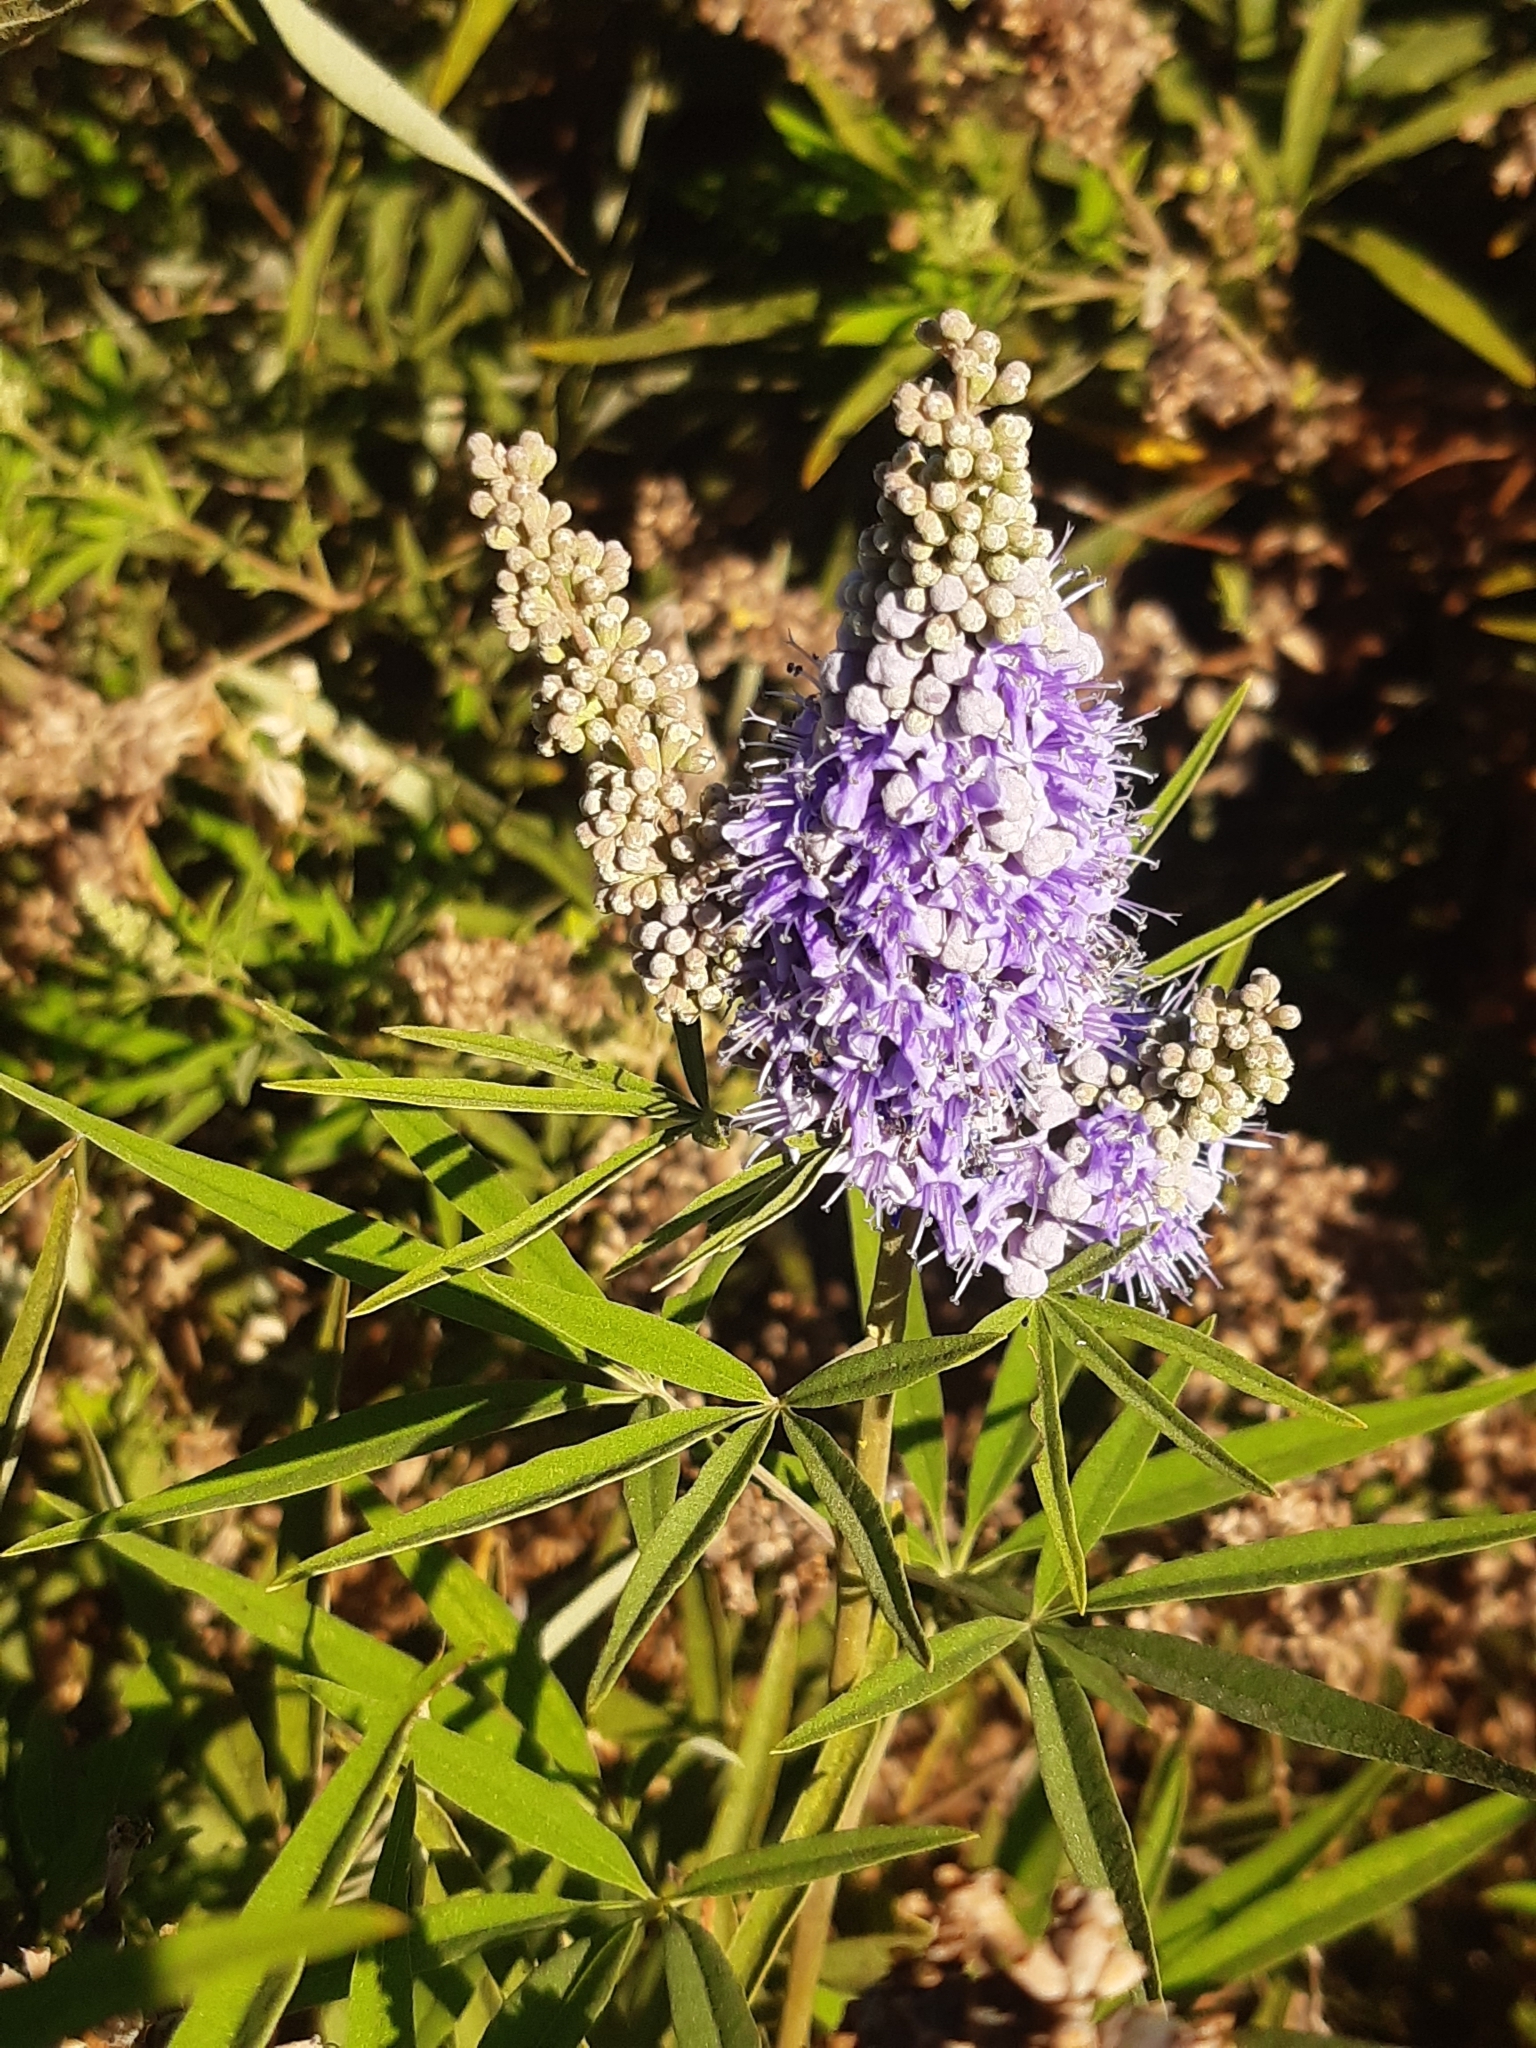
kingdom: Plantae
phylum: Tracheophyta
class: Magnoliopsida
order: Lamiales
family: Lamiaceae
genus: Vitex
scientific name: Vitex agnus-castus
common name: Chasteberry
